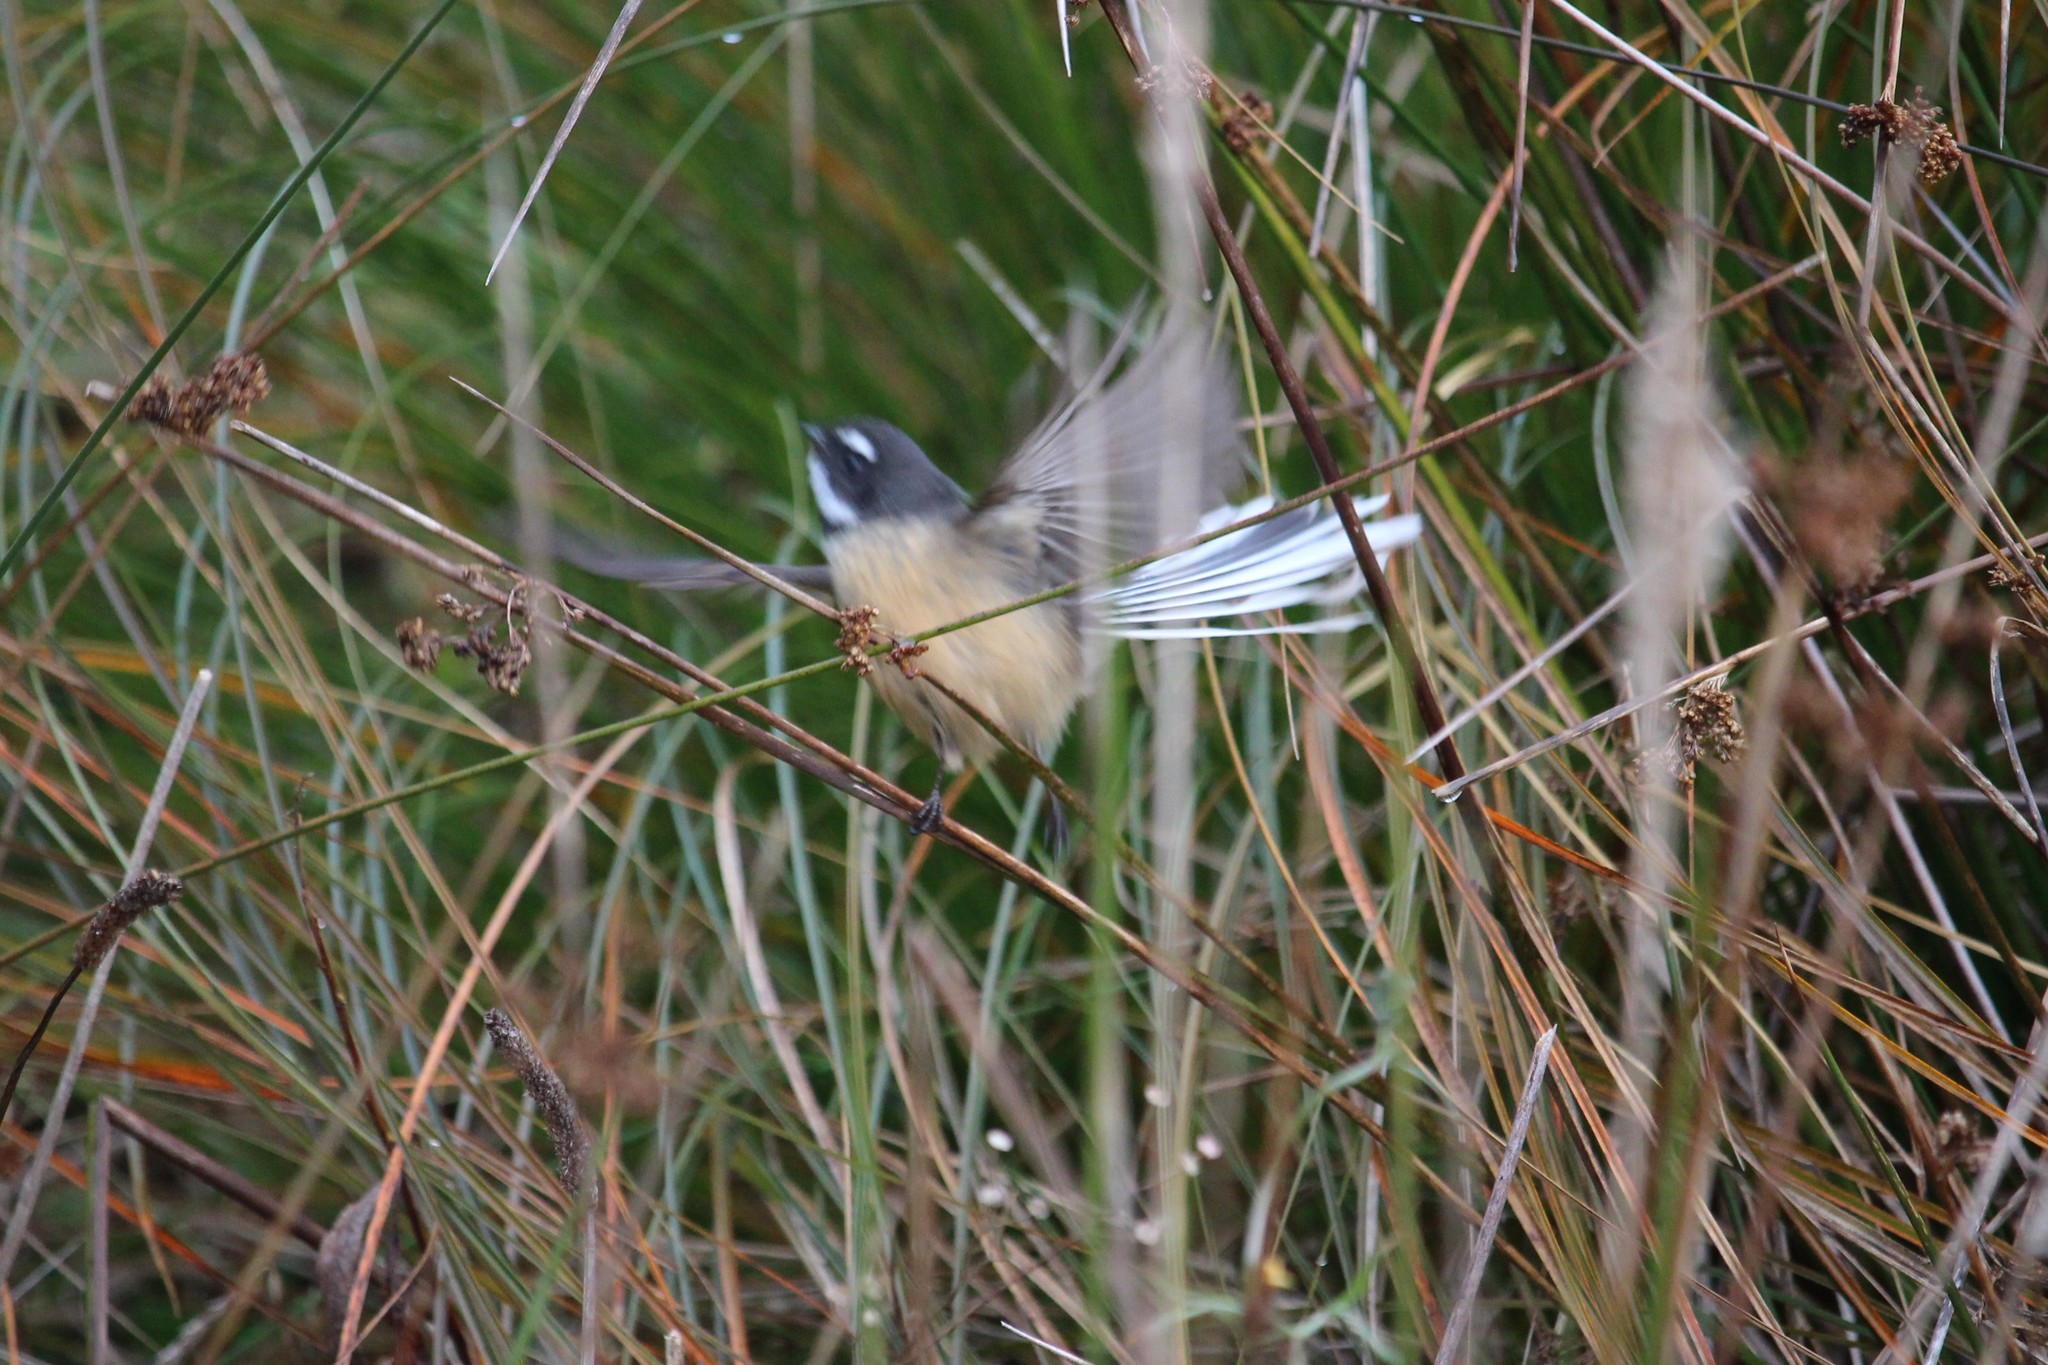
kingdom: Animalia
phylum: Chordata
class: Aves
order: Passeriformes
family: Rhipiduridae
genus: Rhipidura
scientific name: Rhipidura fuliginosa
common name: New zealand fantail
